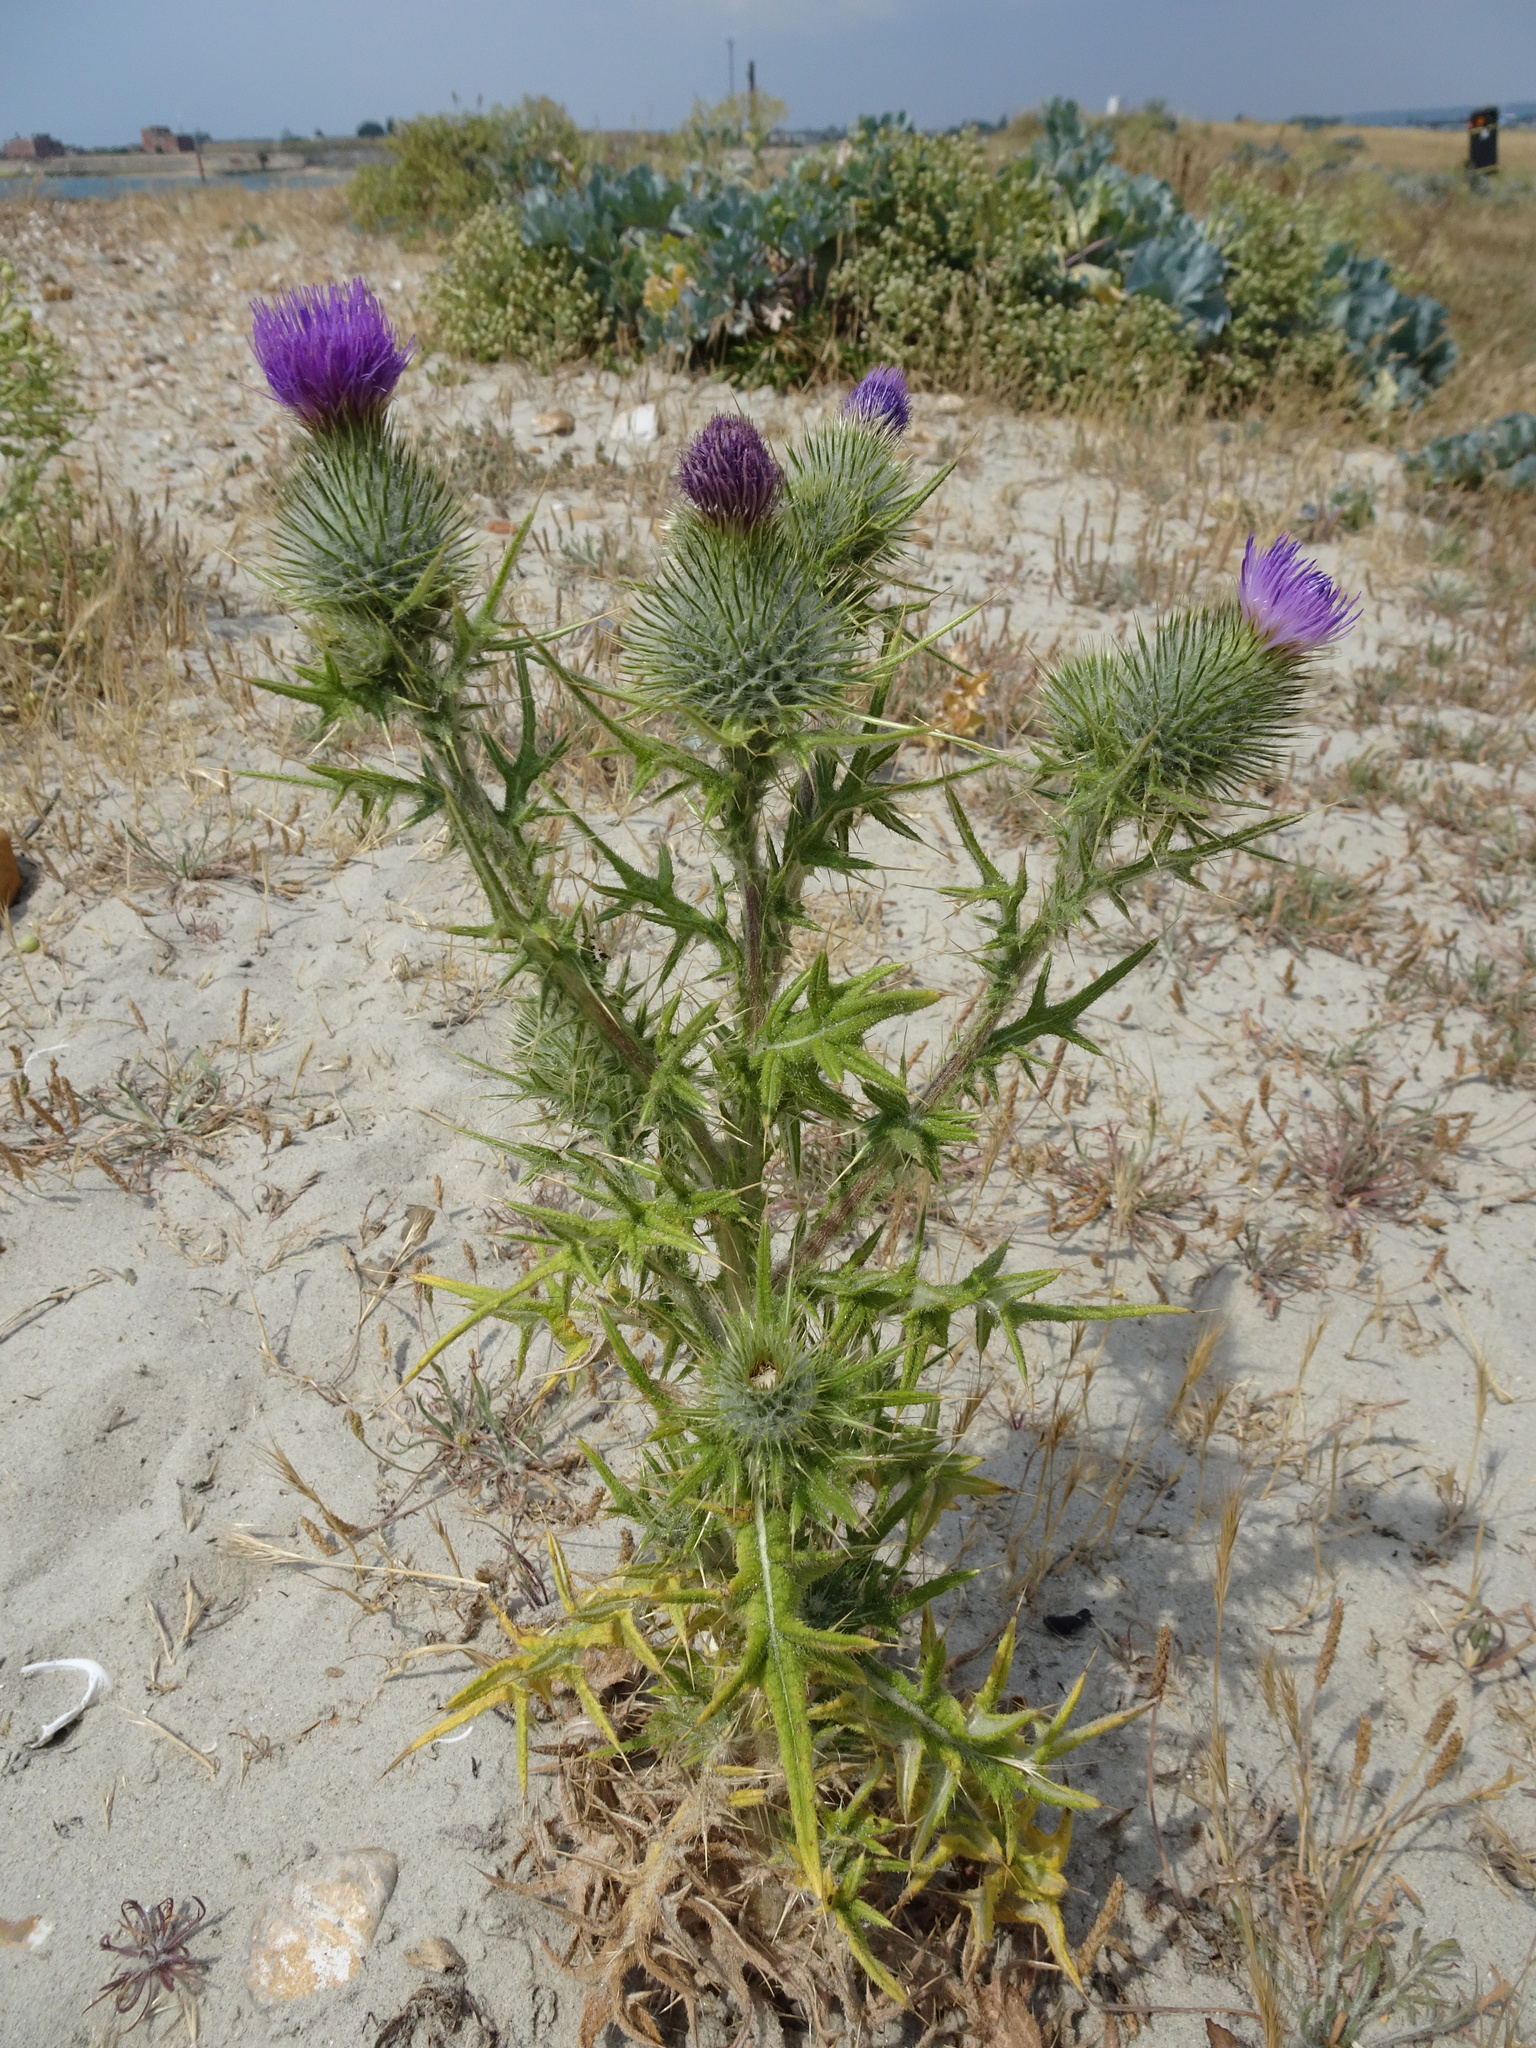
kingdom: Plantae
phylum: Tracheophyta
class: Magnoliopsida
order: Asterales
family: Asteraceae
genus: Cirsium
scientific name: Cirsium vulgare
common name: Bull thistle
